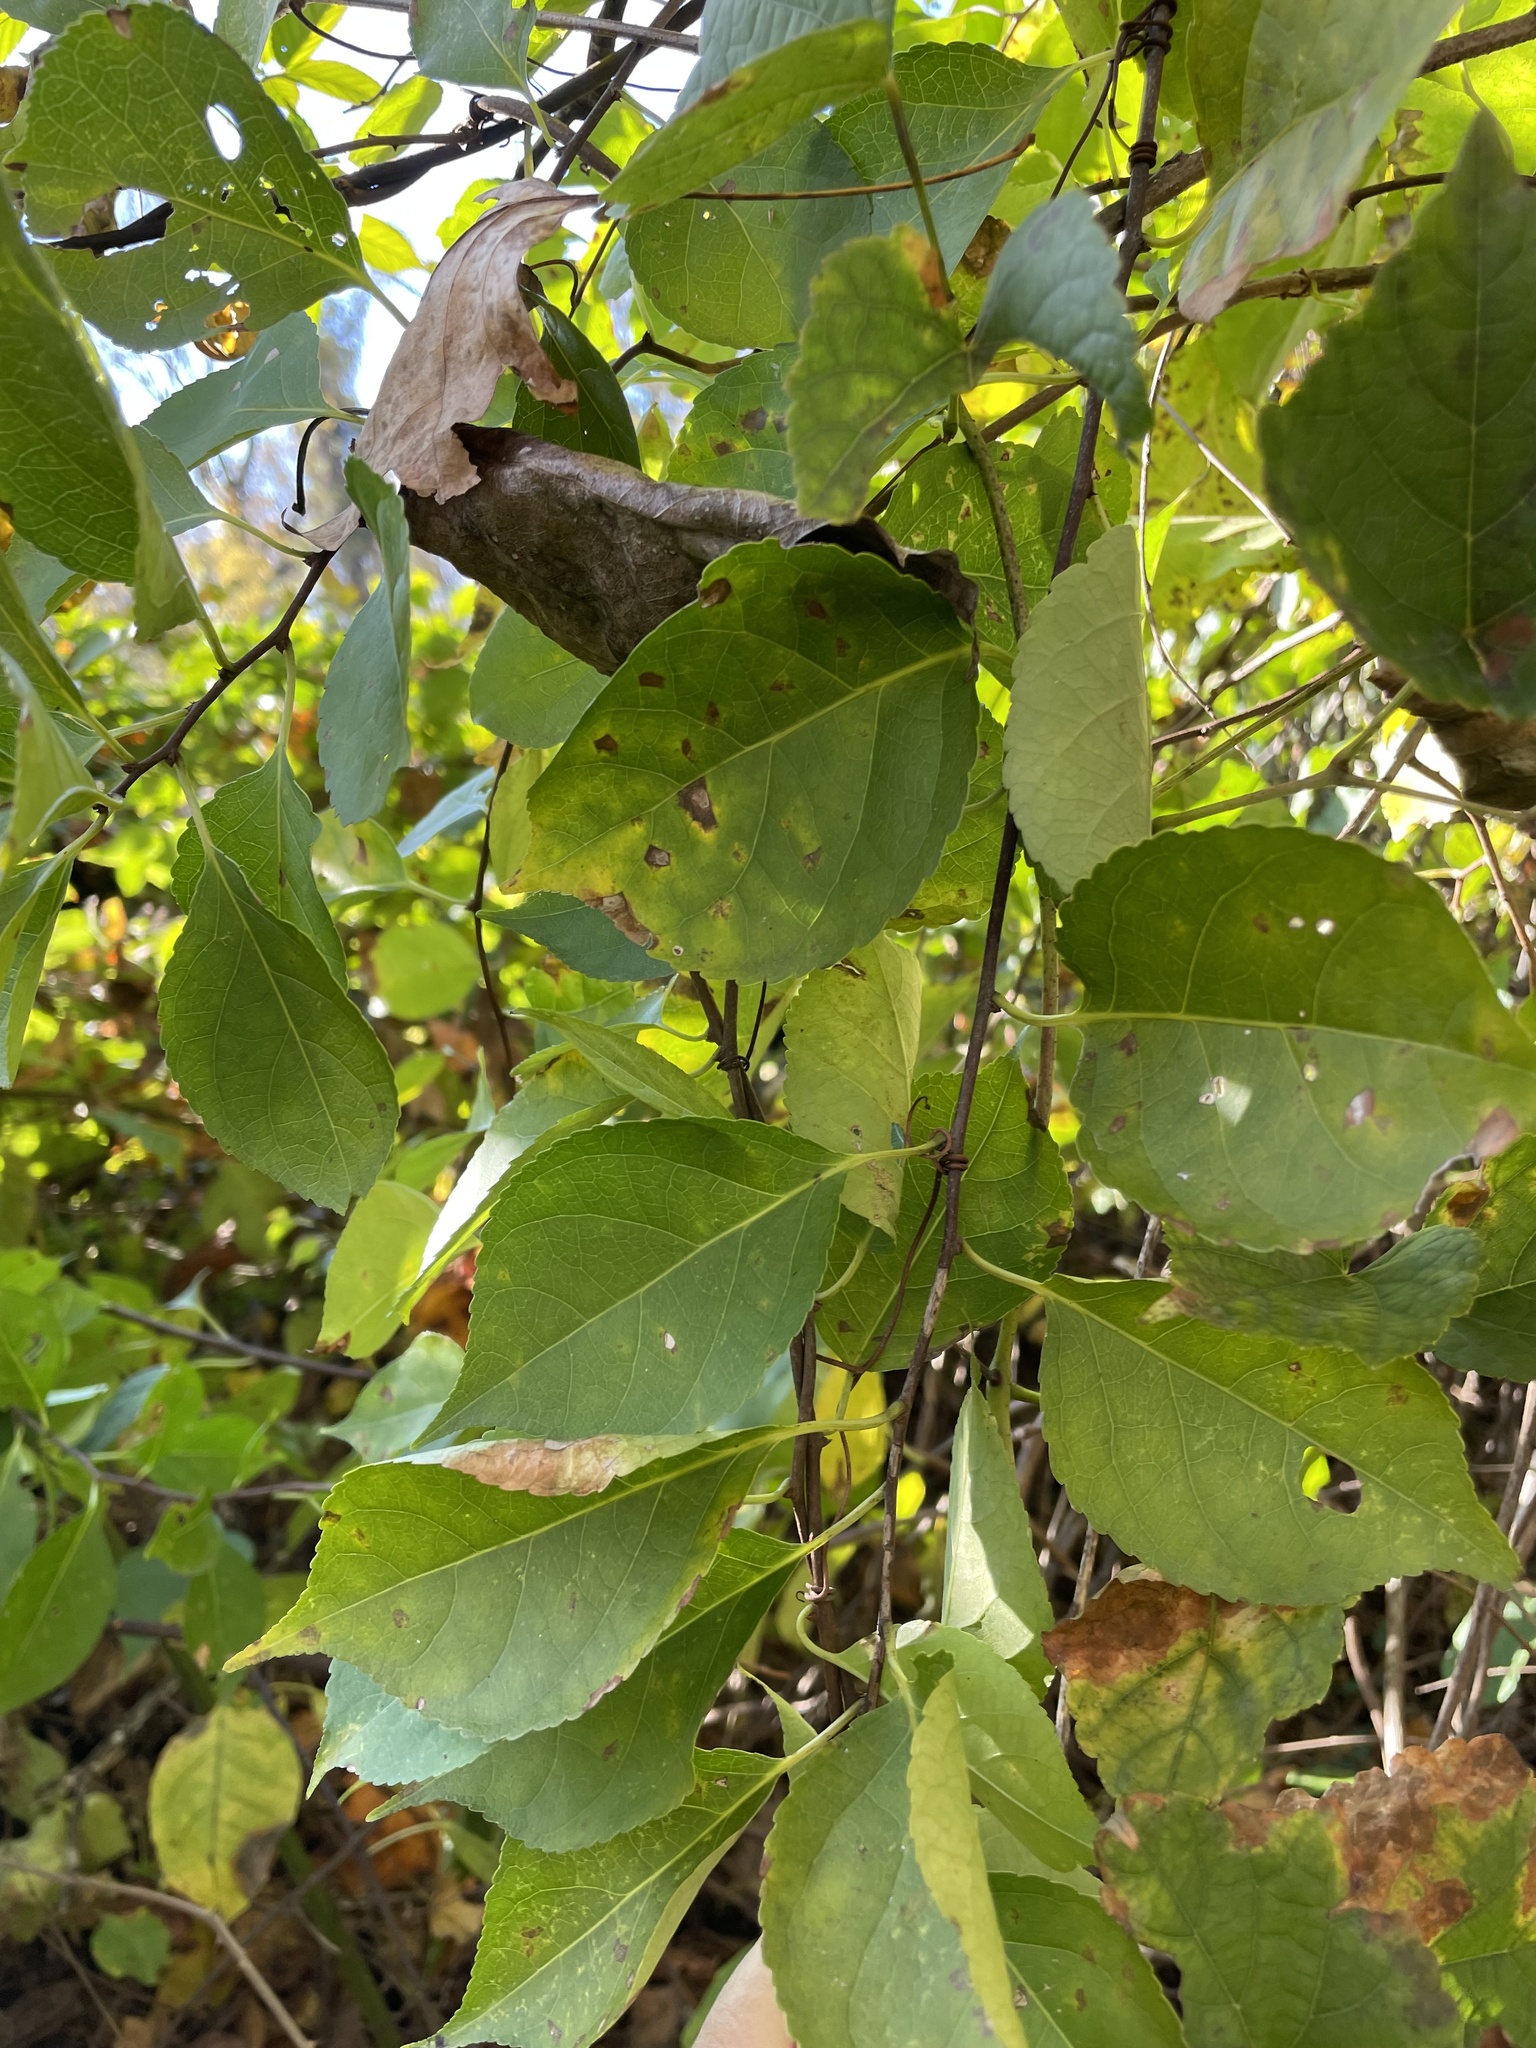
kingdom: Plantae
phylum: Tracheophyta
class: Magnoliopsida
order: Celastrales
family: Celastraceae
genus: Celastrus
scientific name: Celastrus orbiculatus
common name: Oriental bittersweet
